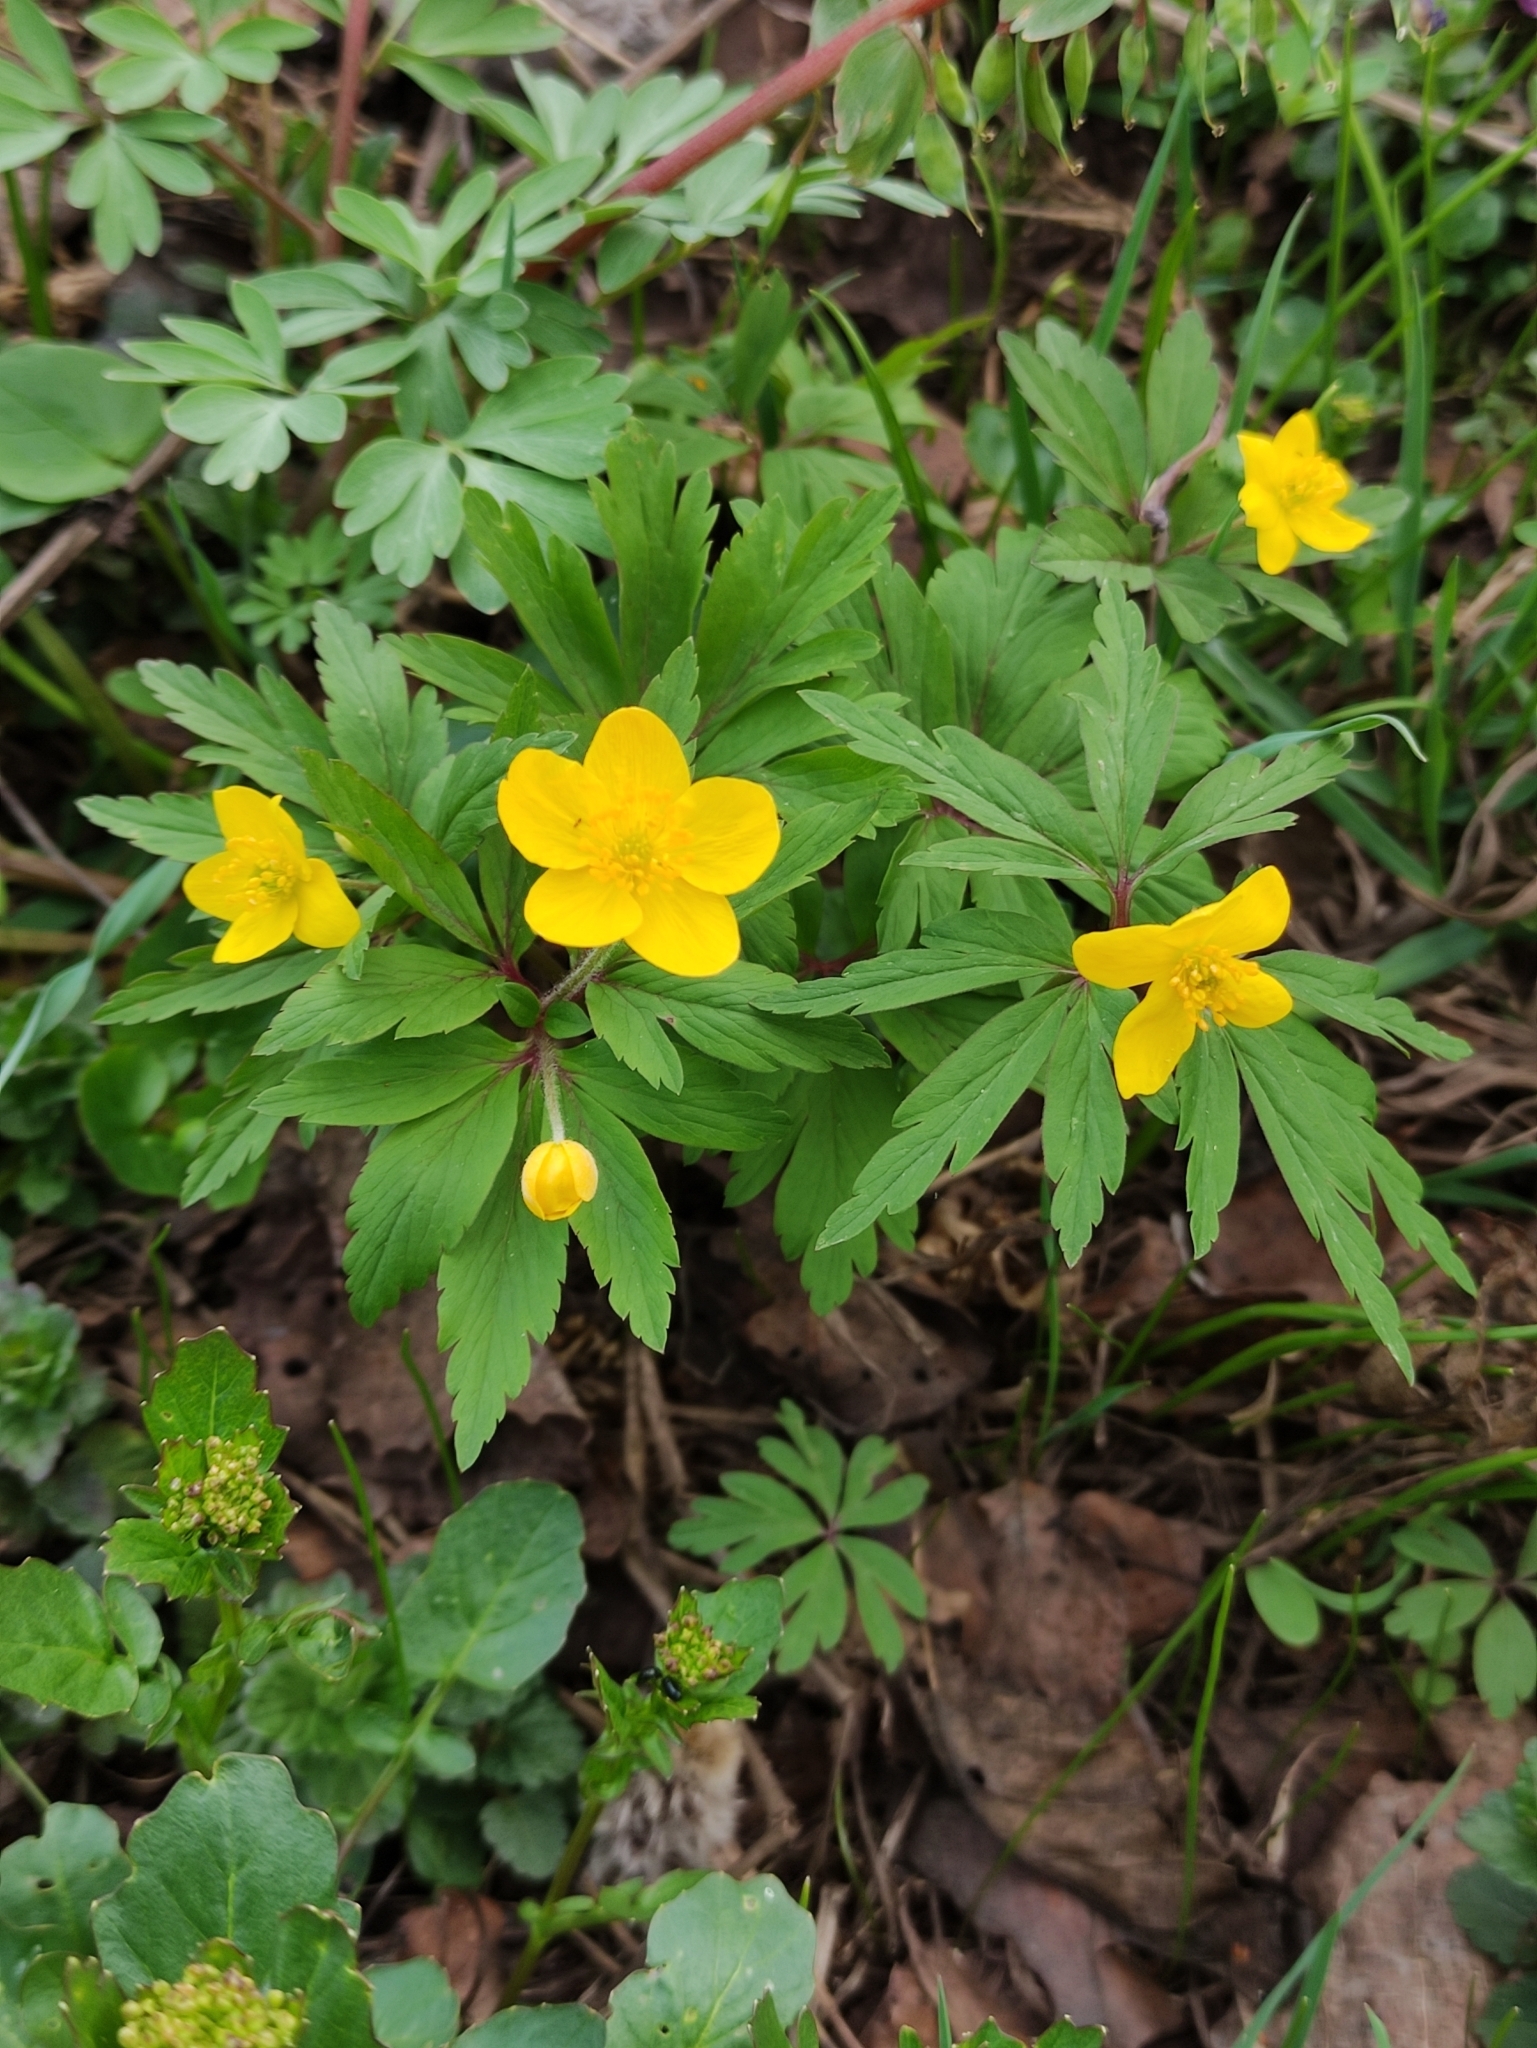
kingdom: Plantae
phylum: Tracheophyta
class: Magnoliopsida
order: Ranunculales
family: Ranunculaceae
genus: Anemone
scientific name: Anemone ranunculoides
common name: Yellow anemone
